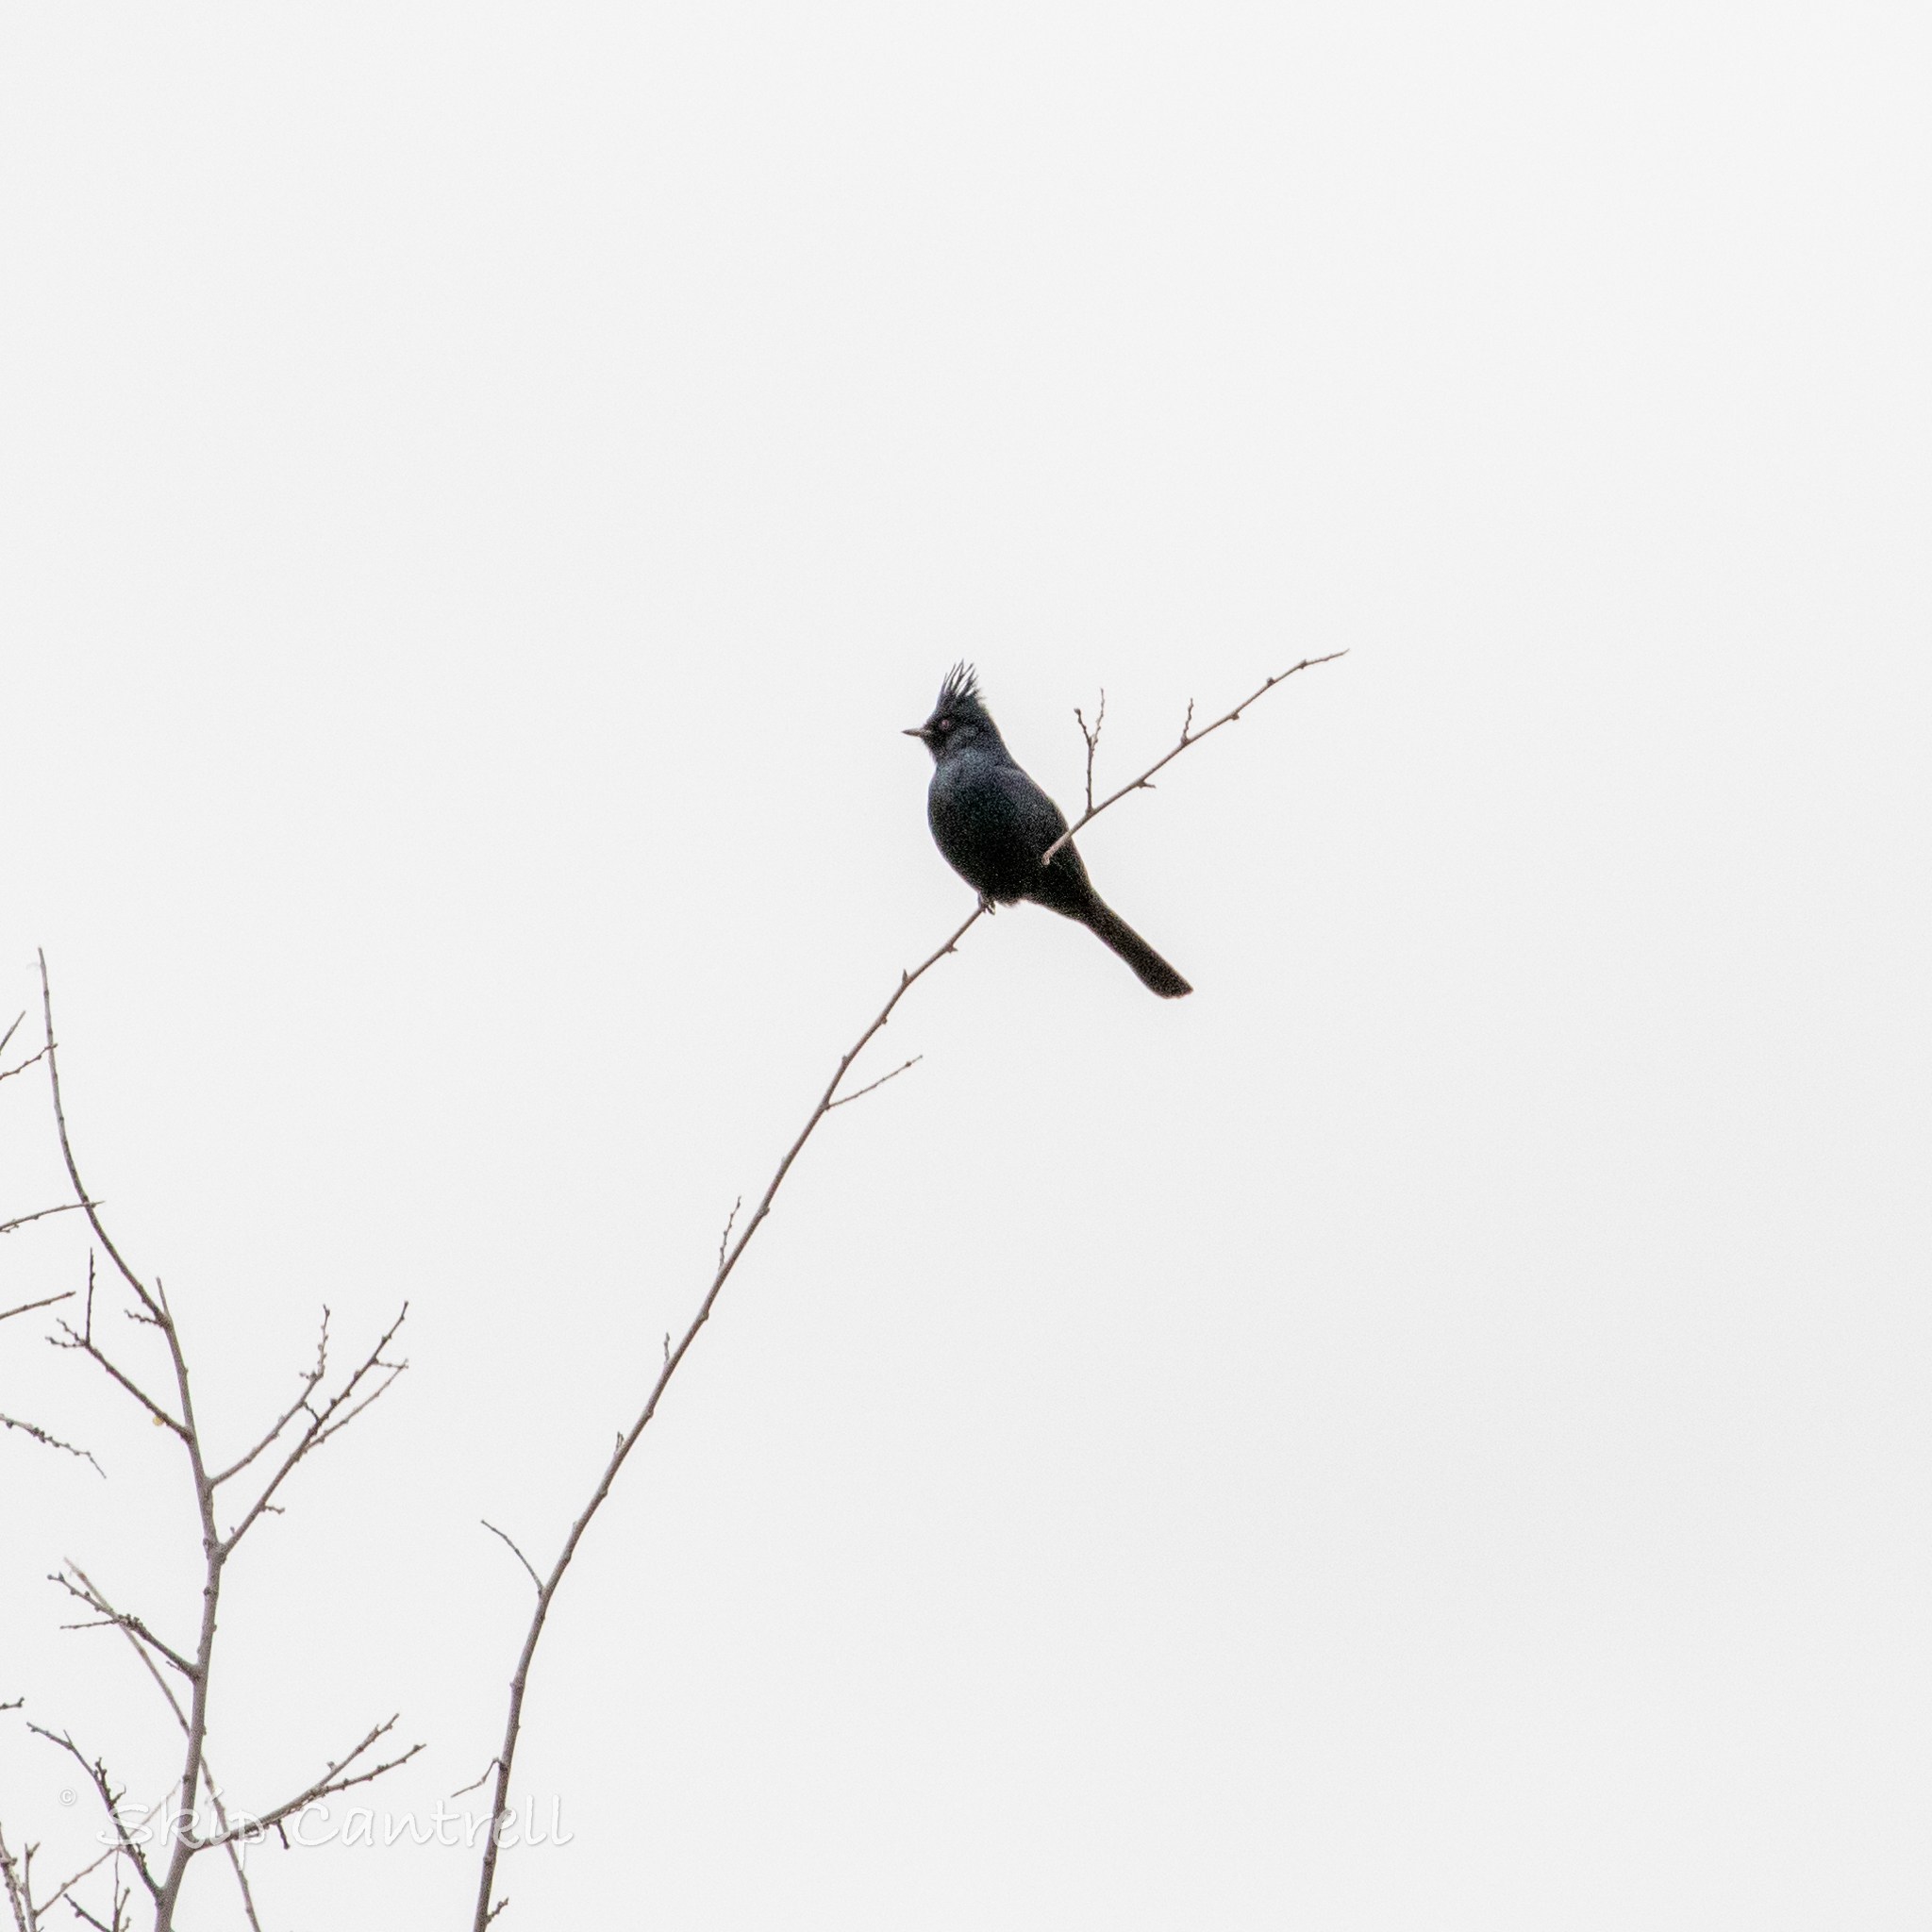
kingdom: Animalia
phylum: Chordata
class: Aves
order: Passeriformes
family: Ptilogonatidae
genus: Phainopepla
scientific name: Phainopepla nitens
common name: Phainopepla
